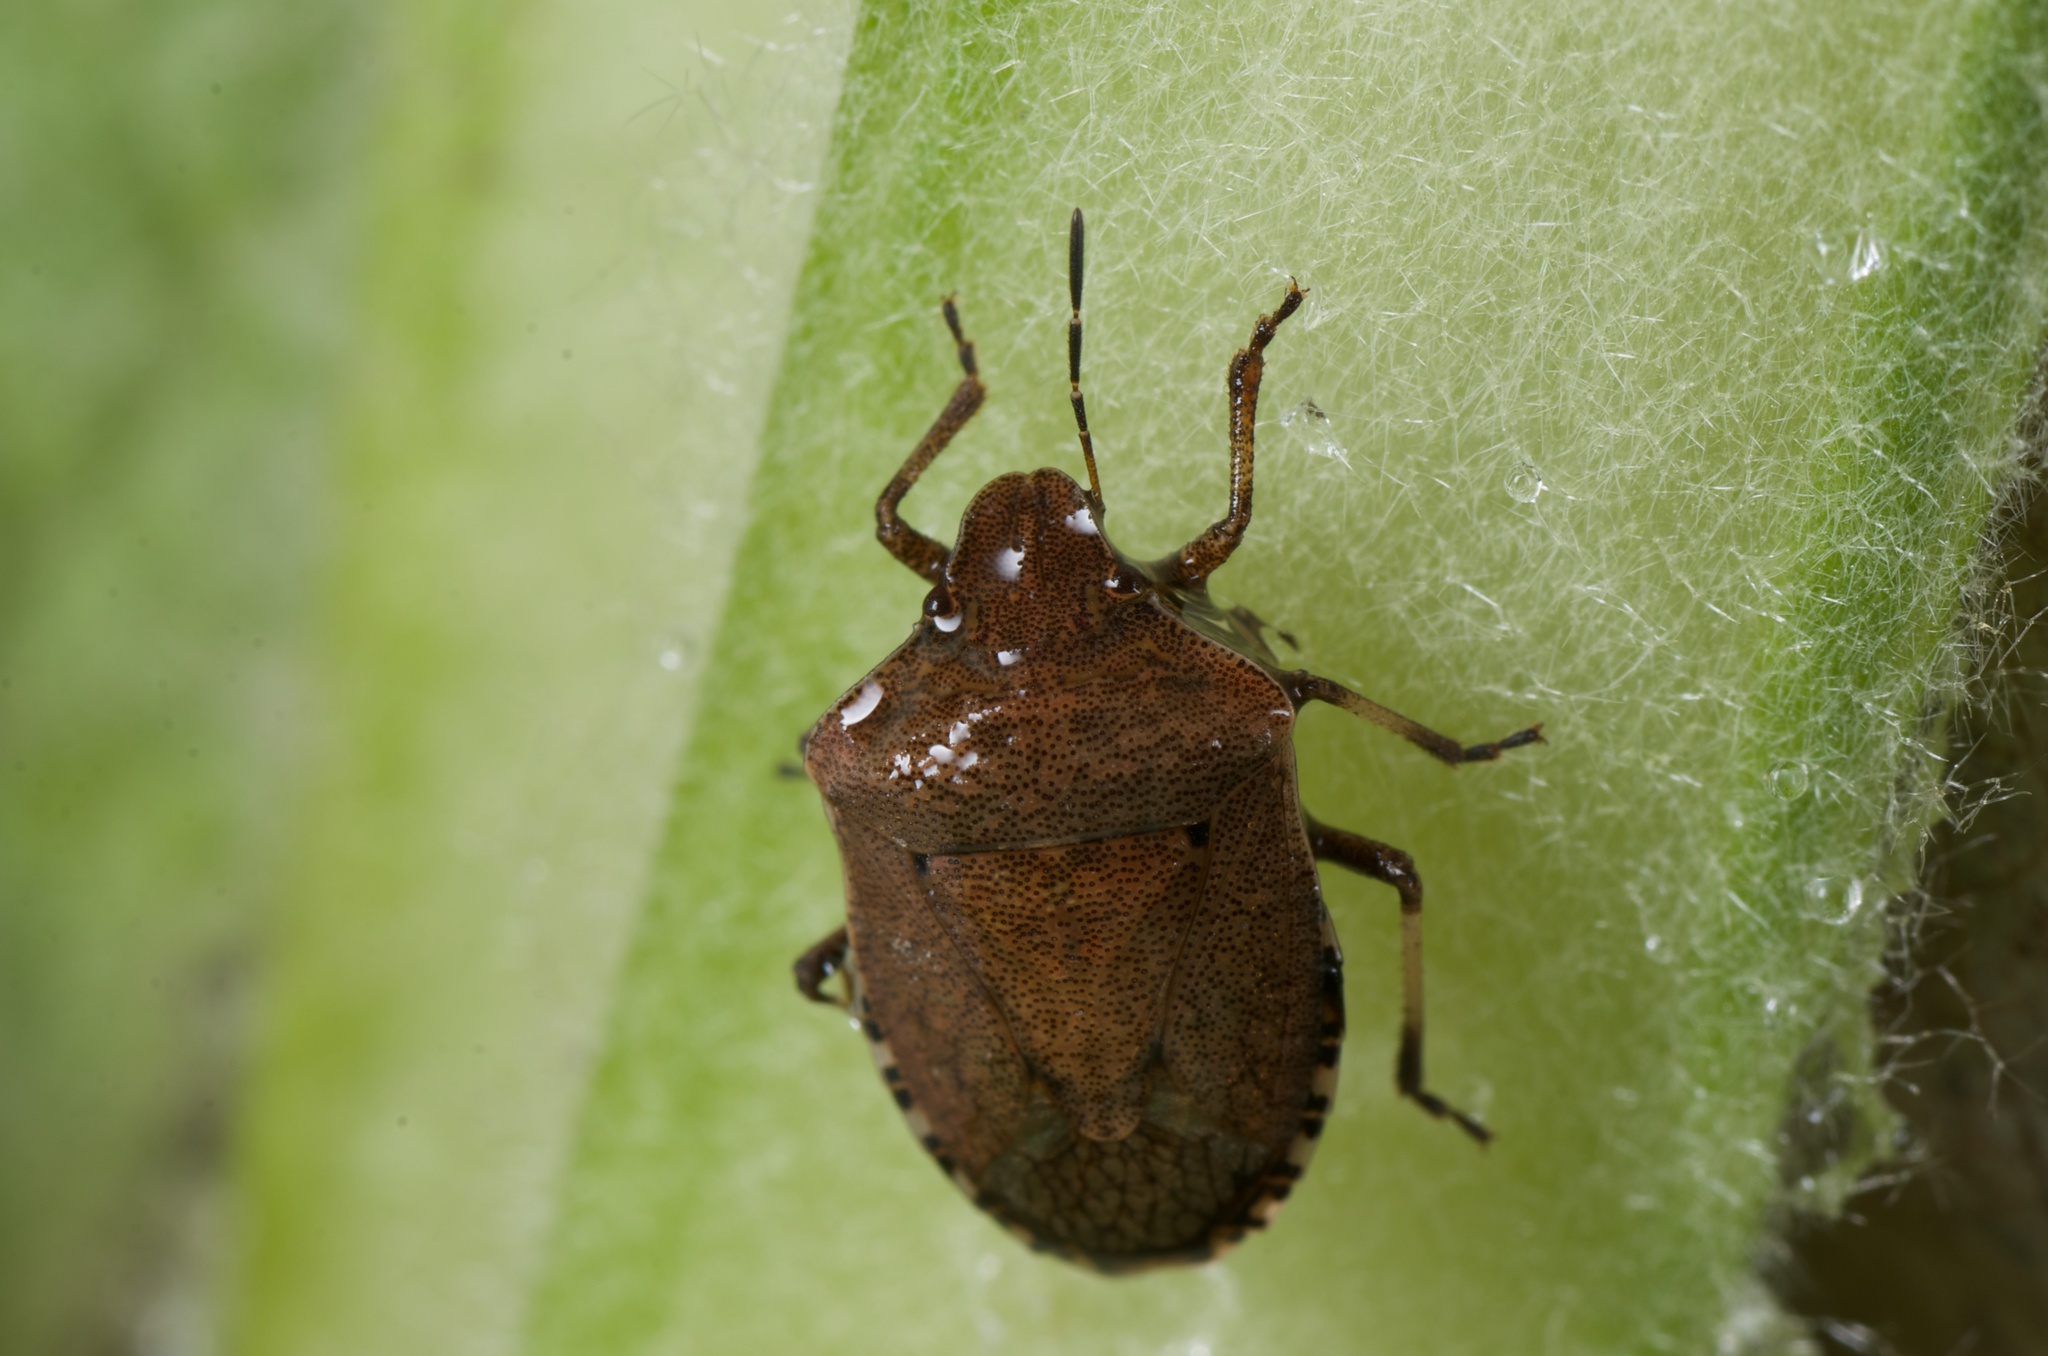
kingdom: Animalia
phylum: Arthropoda
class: Insecta
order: Hemiptera
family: Pentatomidae
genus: Dictyotus
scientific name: Dictyotus caenosus
